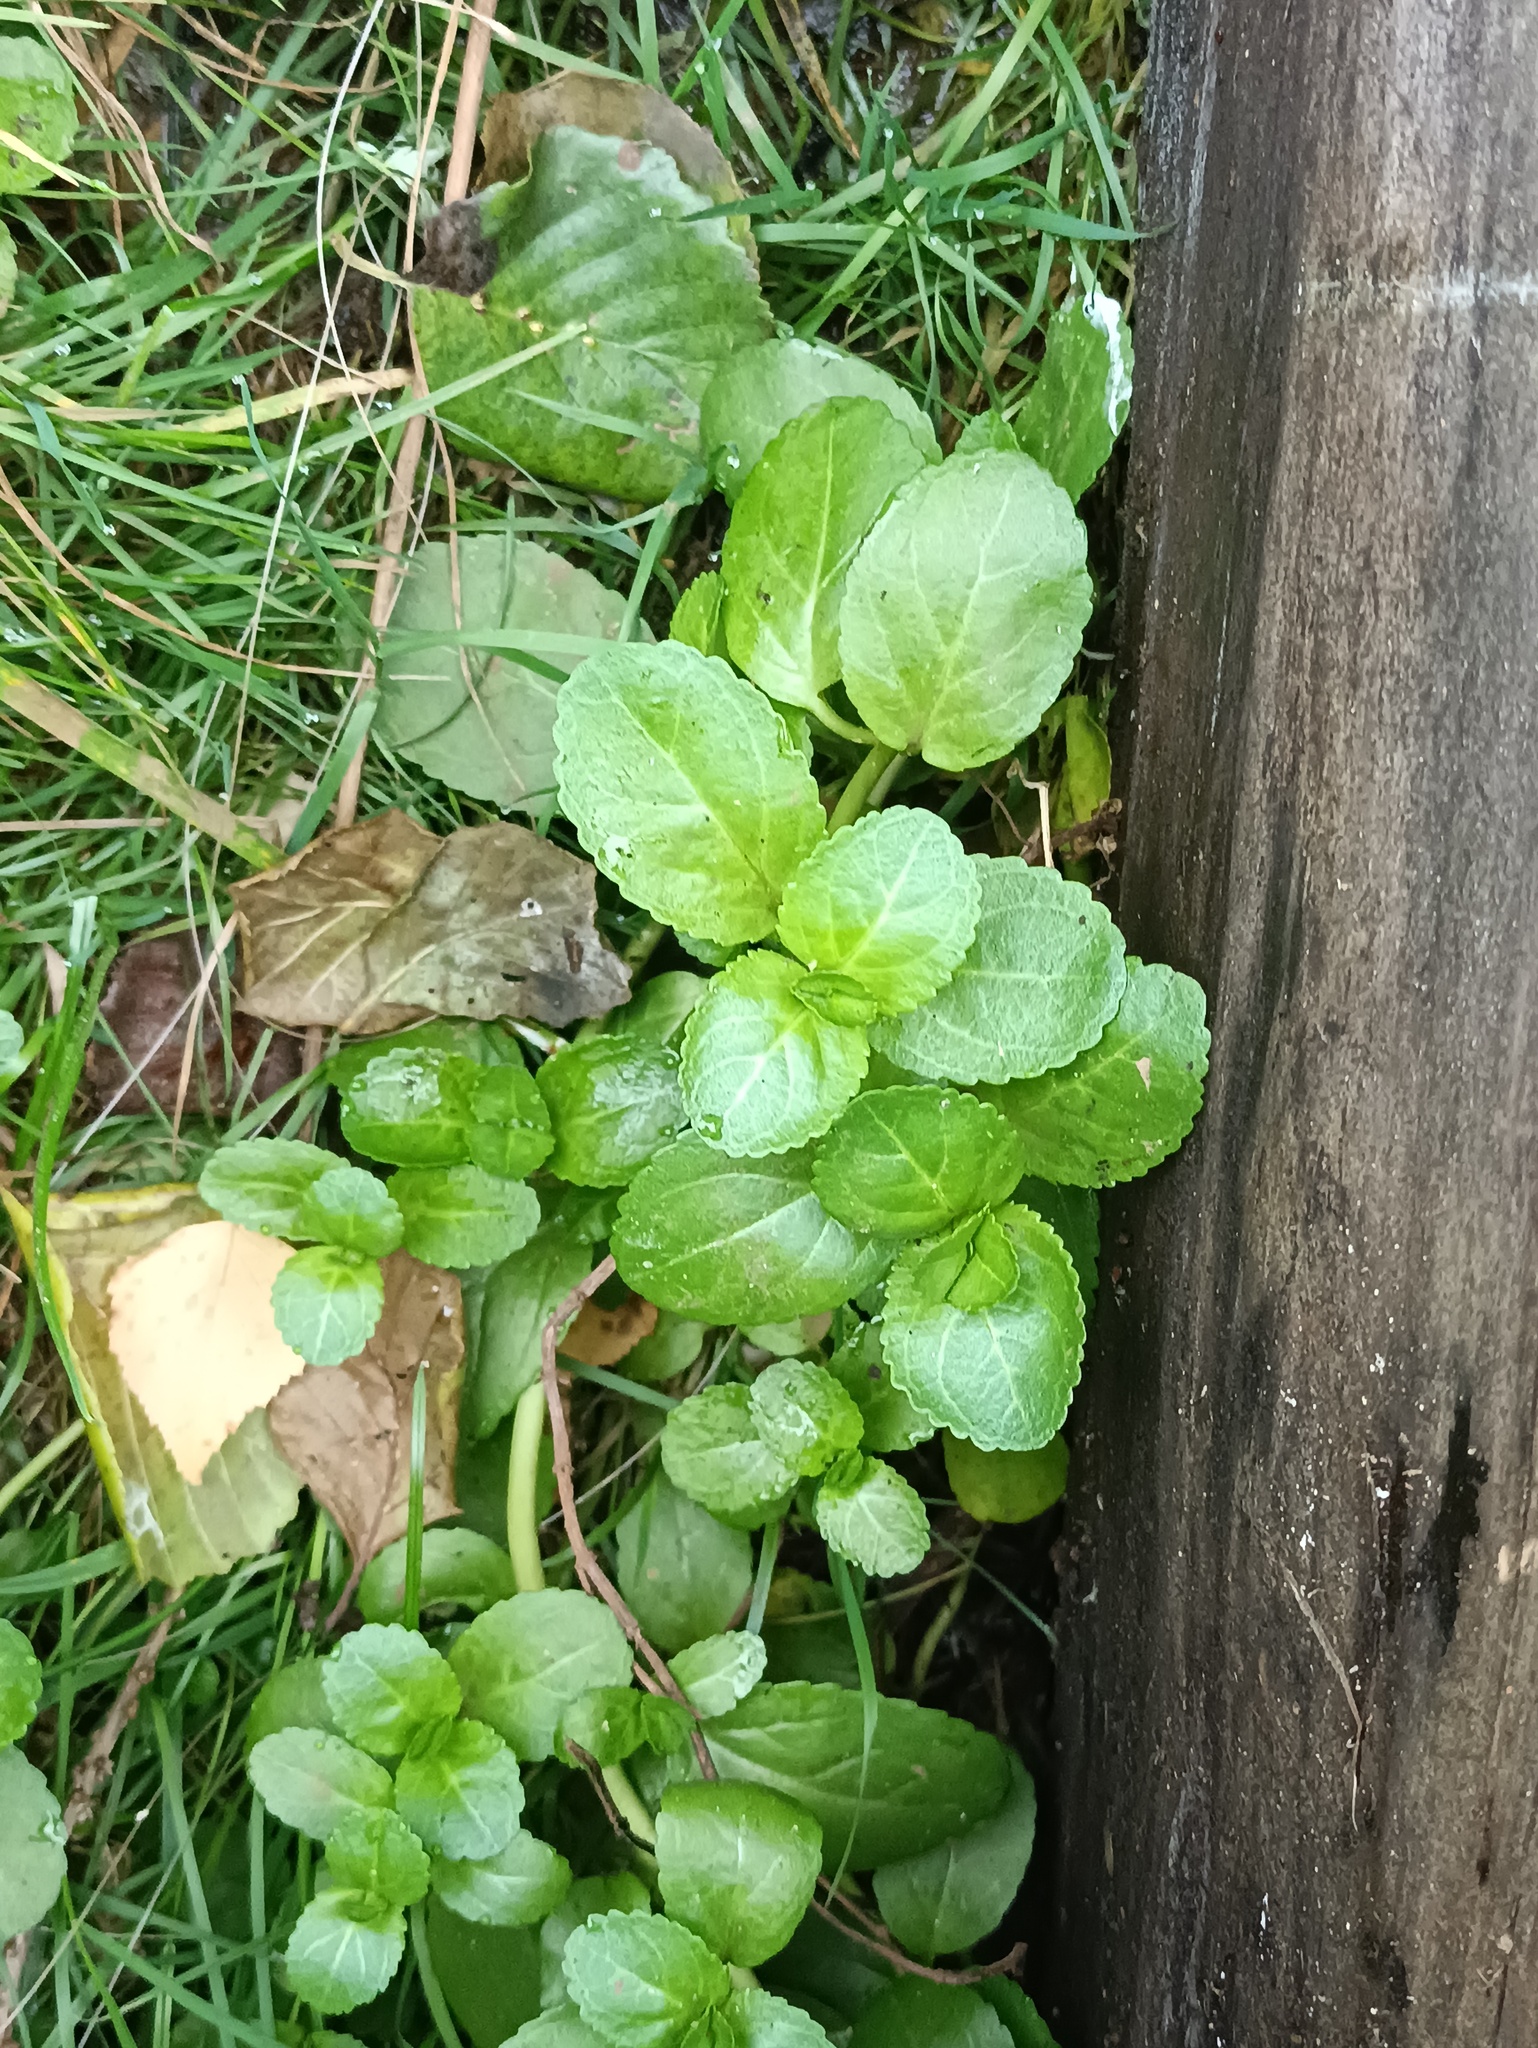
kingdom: Plantae
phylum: Tracheophyta
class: Magnoliopsida
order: Lamiales
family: Plantaginaceae
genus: Veronica
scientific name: Veronica beccabunga
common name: Brooklime
